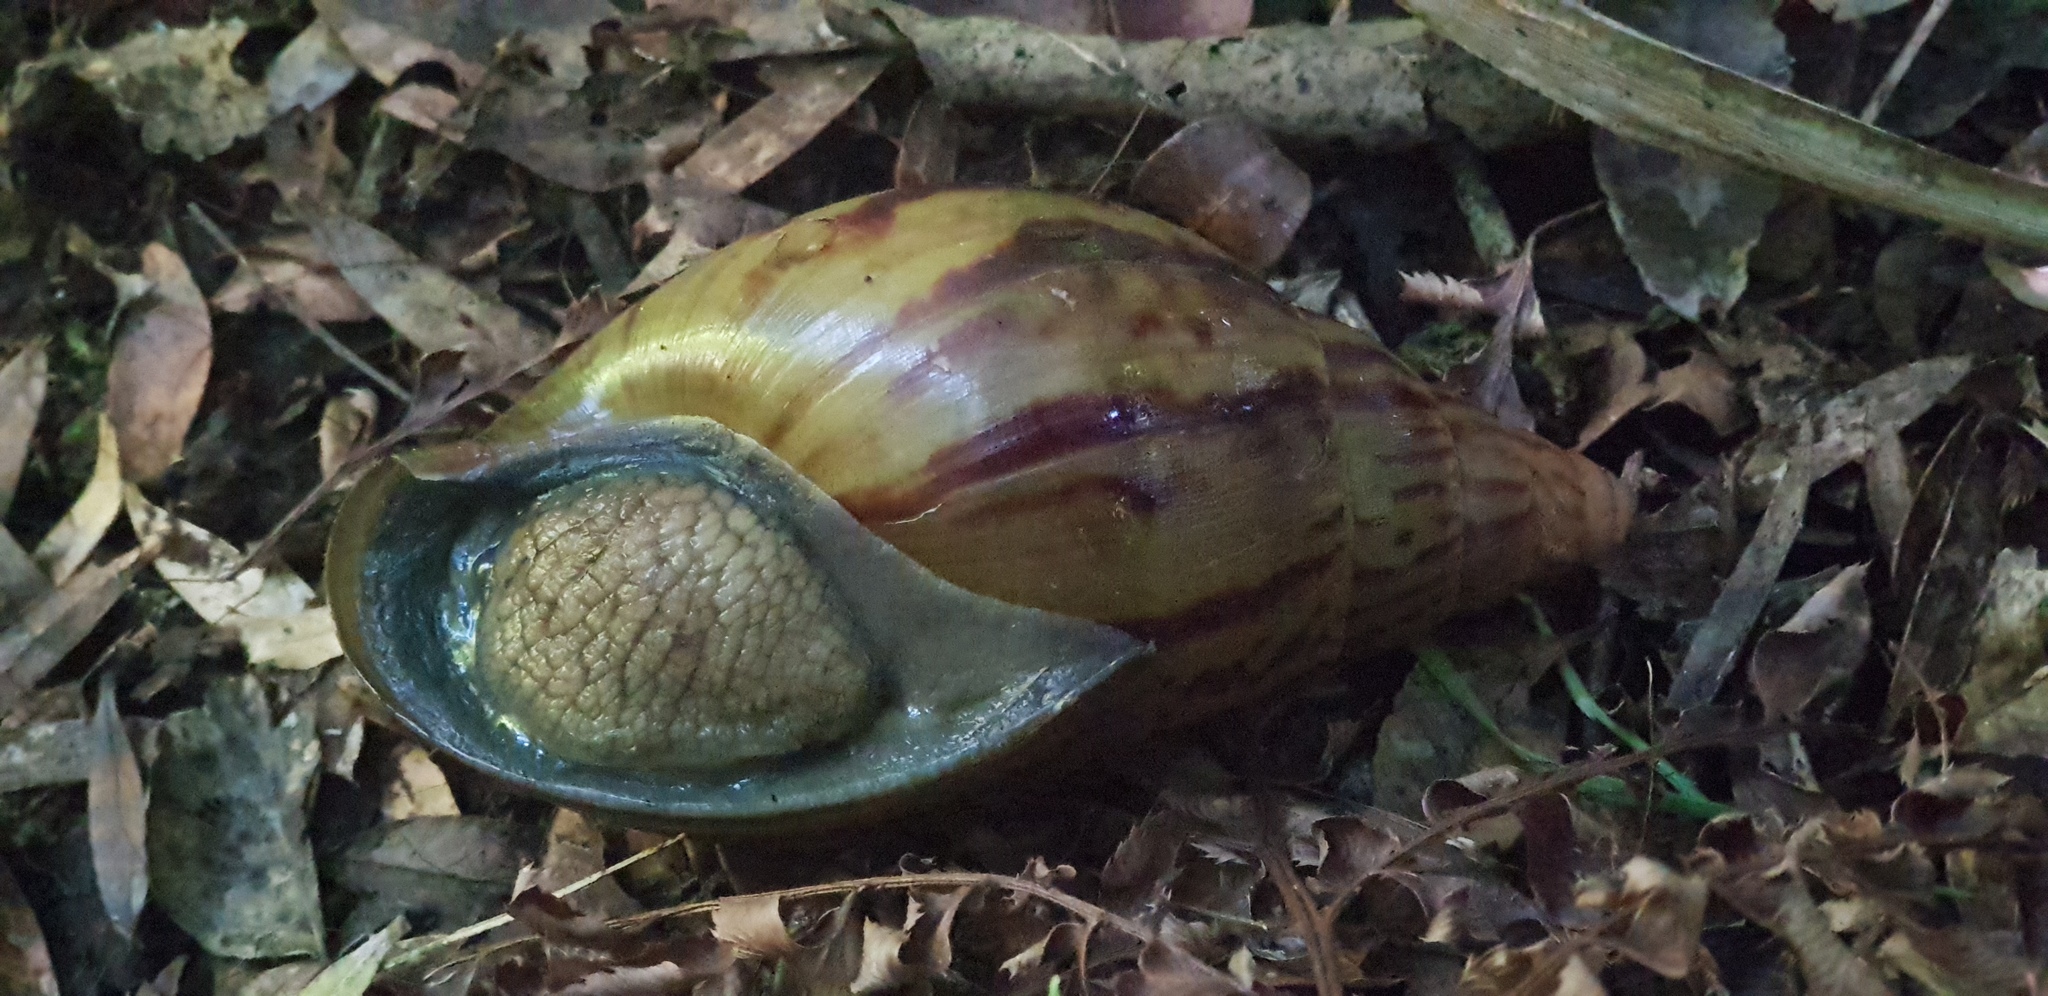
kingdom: Animalia
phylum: Mollusca
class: Gastropoda
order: Stylommatophora
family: Achatinidae
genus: Cochlitoma
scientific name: Cochlitoma granulata
